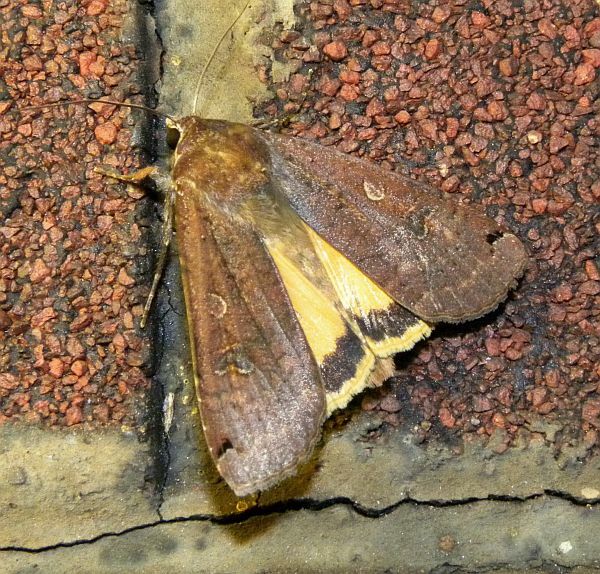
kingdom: Animalia
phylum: Arthropoda
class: Insecta
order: Lepidoptera
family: Noctuidae
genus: Noctua
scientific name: Noctua pronuba
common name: Large yellow underwing
